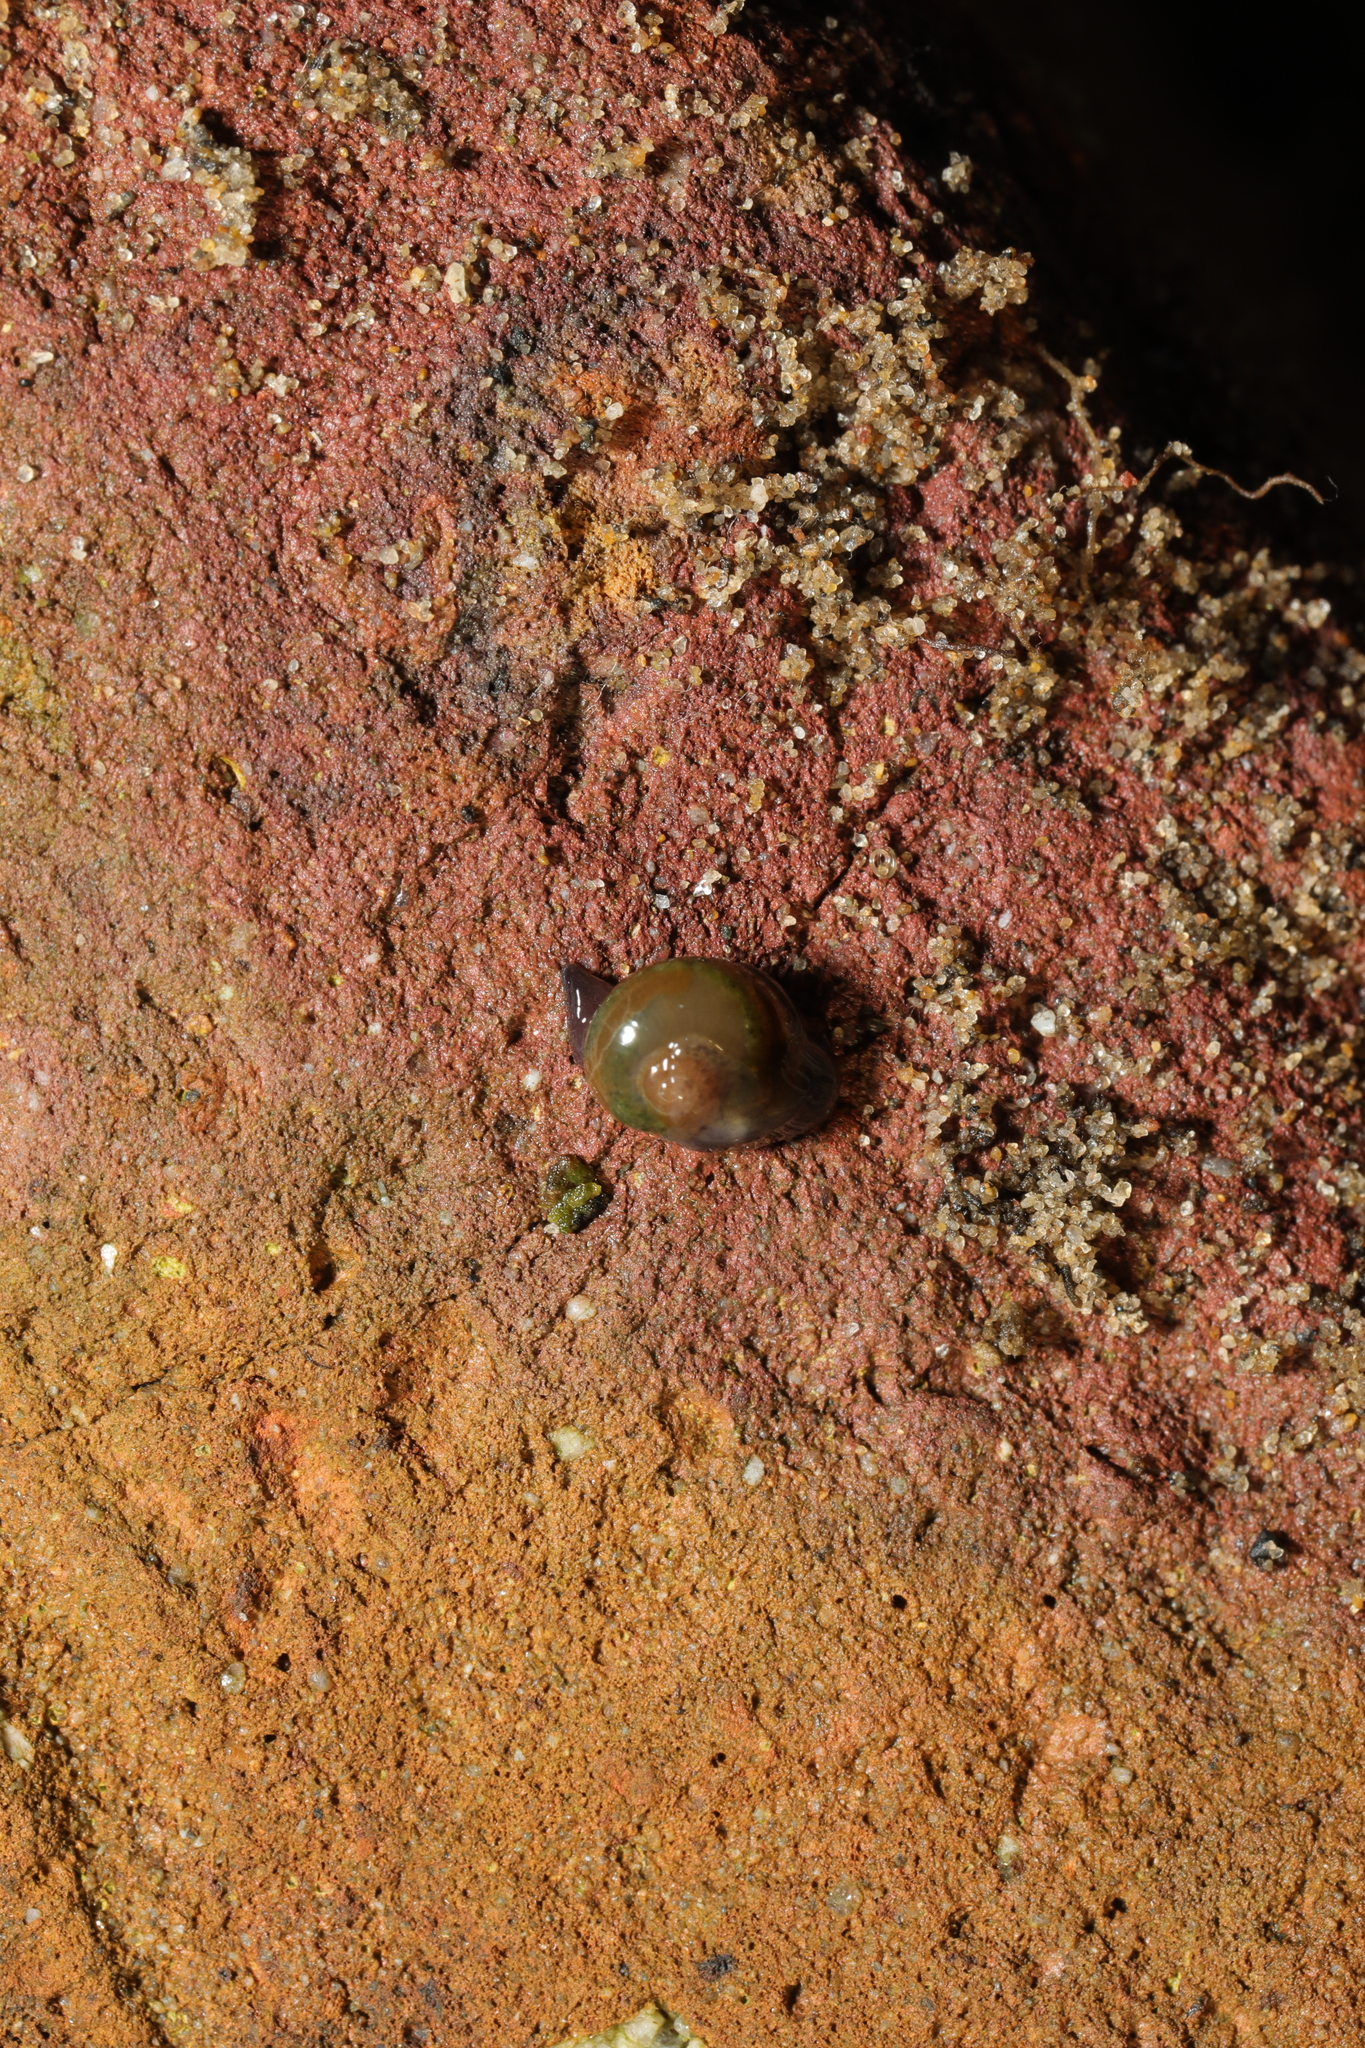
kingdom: Animalia
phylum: Mollusca
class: Gastropoda
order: Stylommatophora
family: Vitrinidae
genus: Vitrina
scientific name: Vitrina pellucida
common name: Pellucid glass snail
